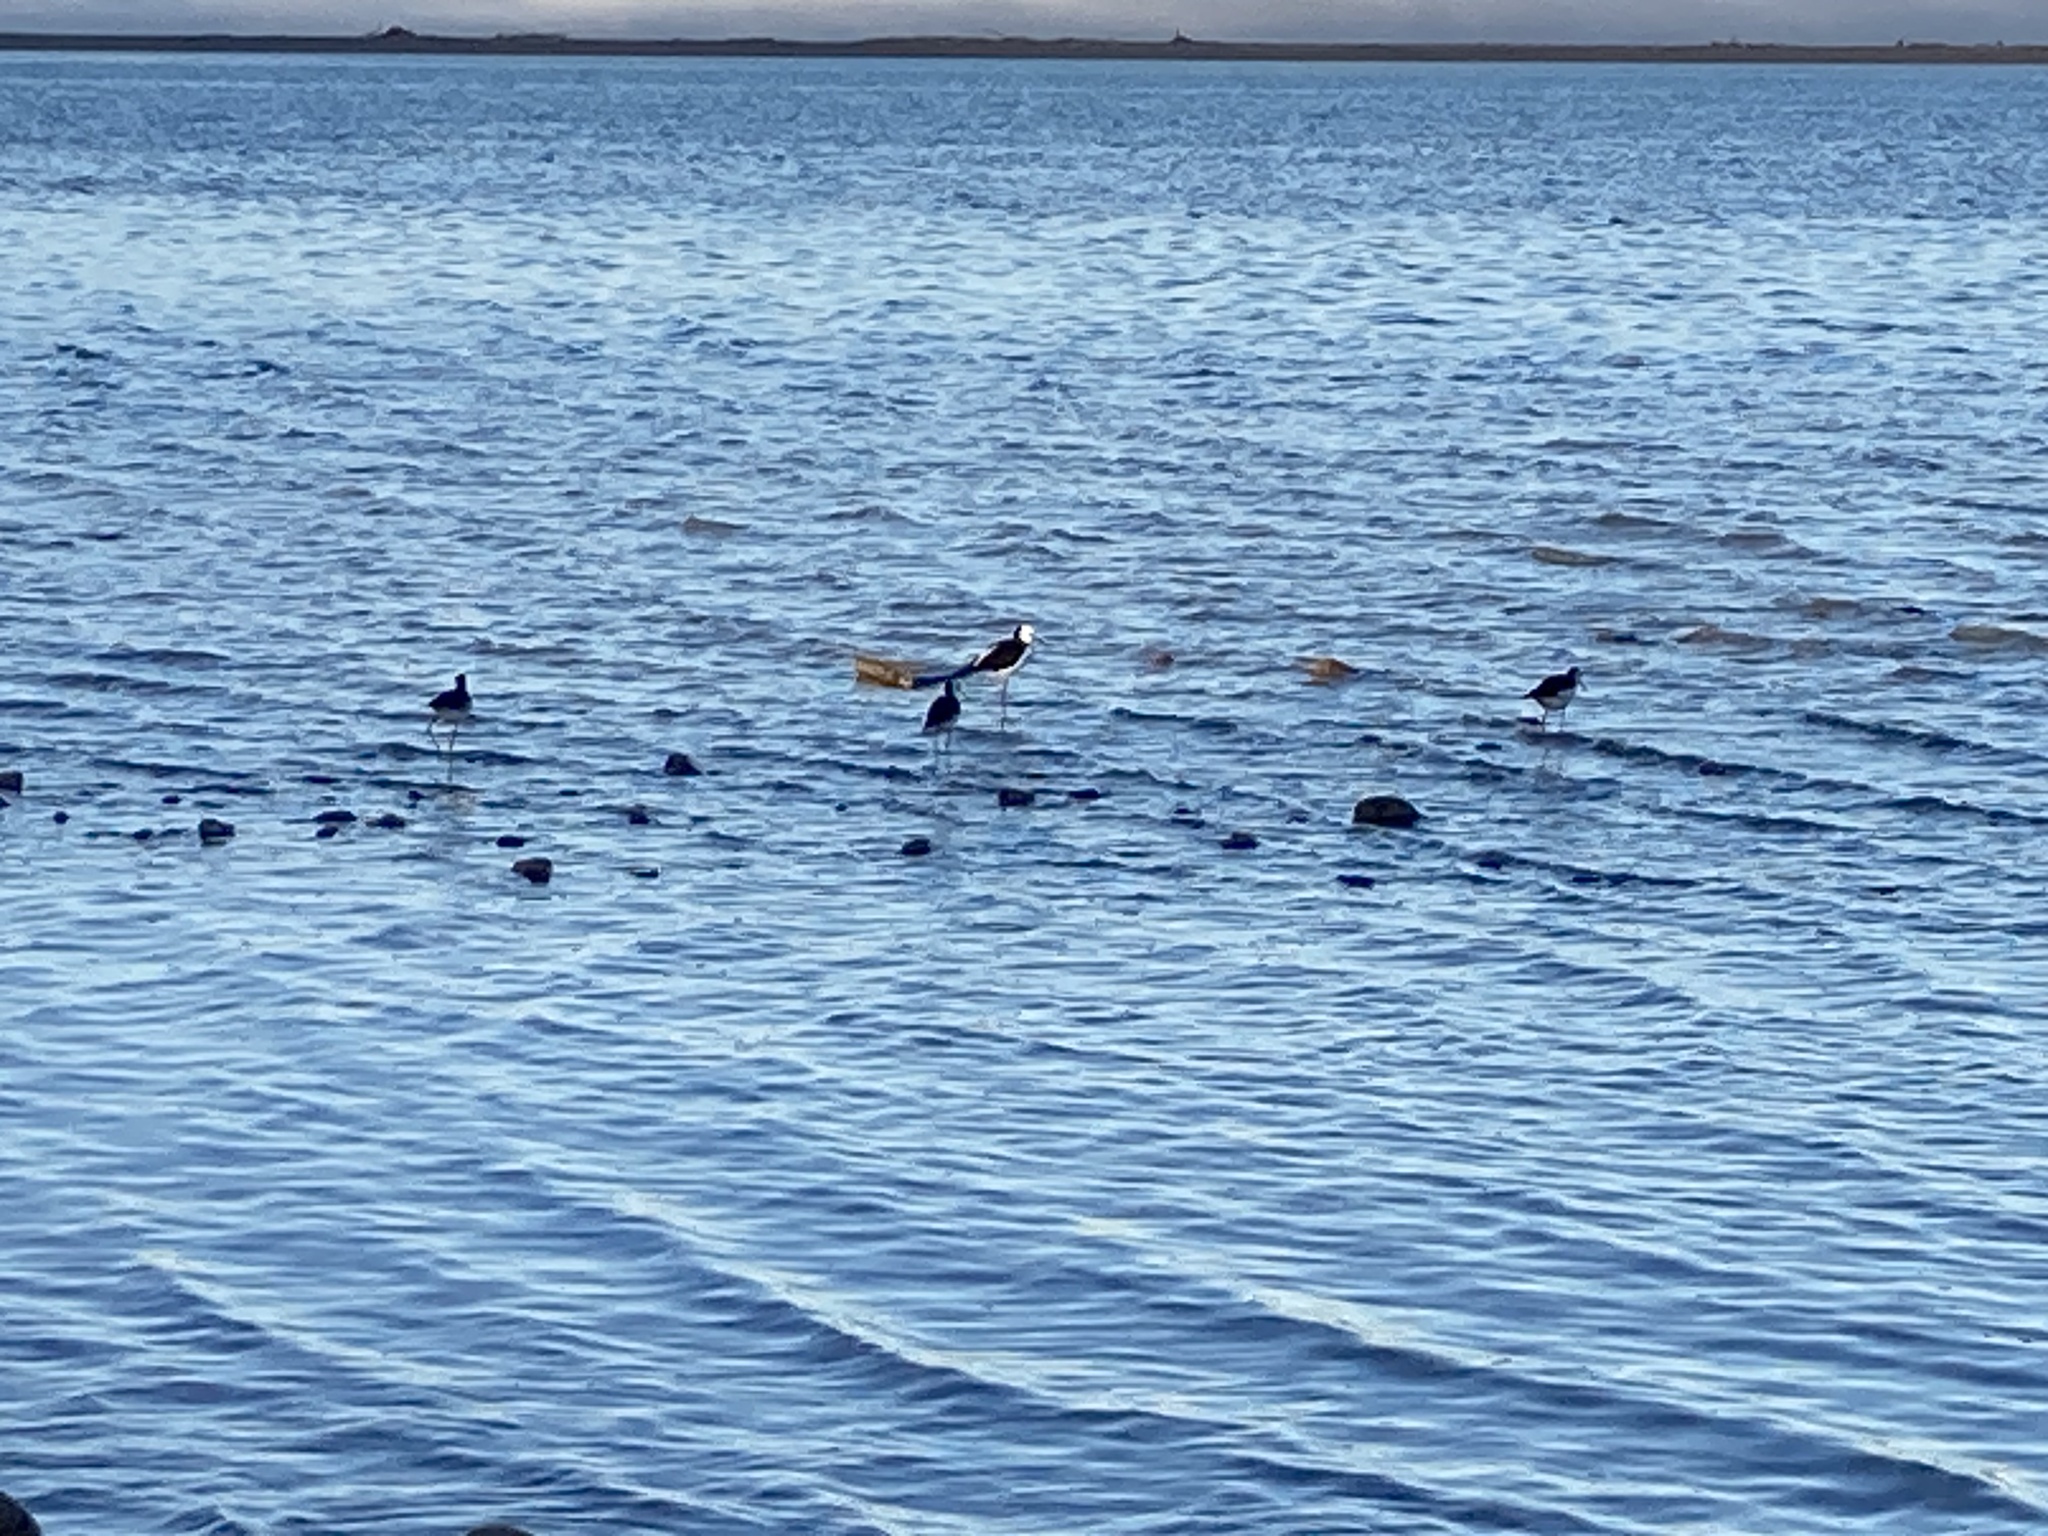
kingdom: Animalia
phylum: Chordata
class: Aves
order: Charadriiformes
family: Recurvirostridae
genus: Himantopus
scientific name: Himantopus leucocephalus
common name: White-headed stilt
